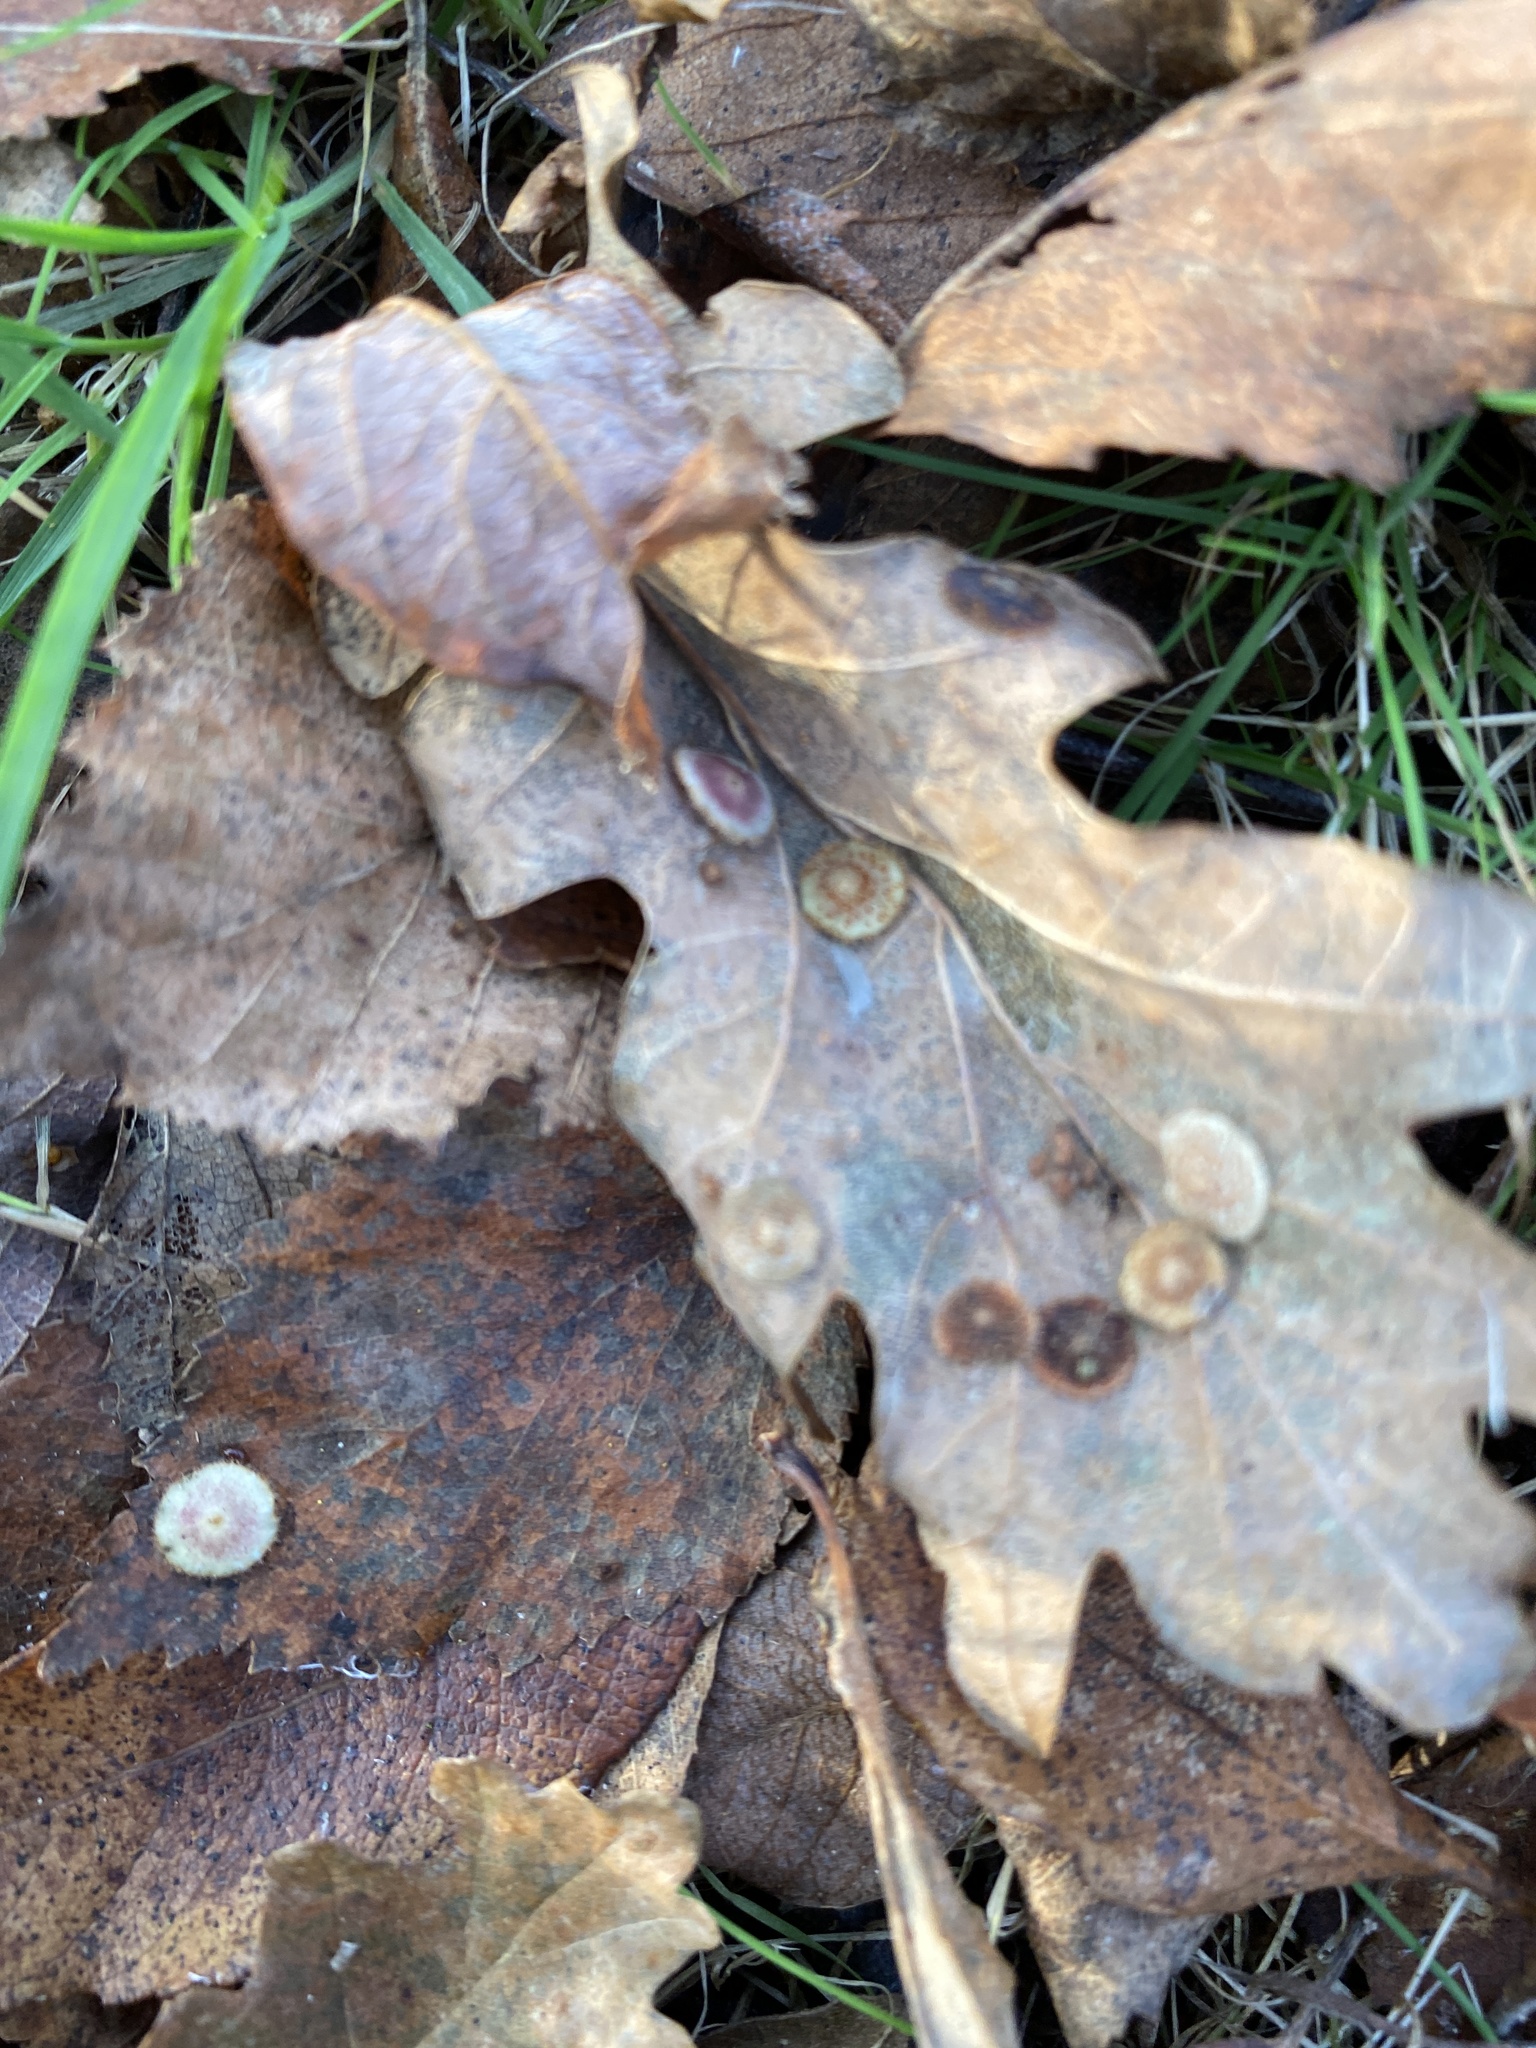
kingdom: Animalia
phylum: Arthropoda
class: Insecta
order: Hymenoptera
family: Cynipidae
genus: Neuroterus
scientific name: Neuroterus quercusbaccarum
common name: Common spangle gall
